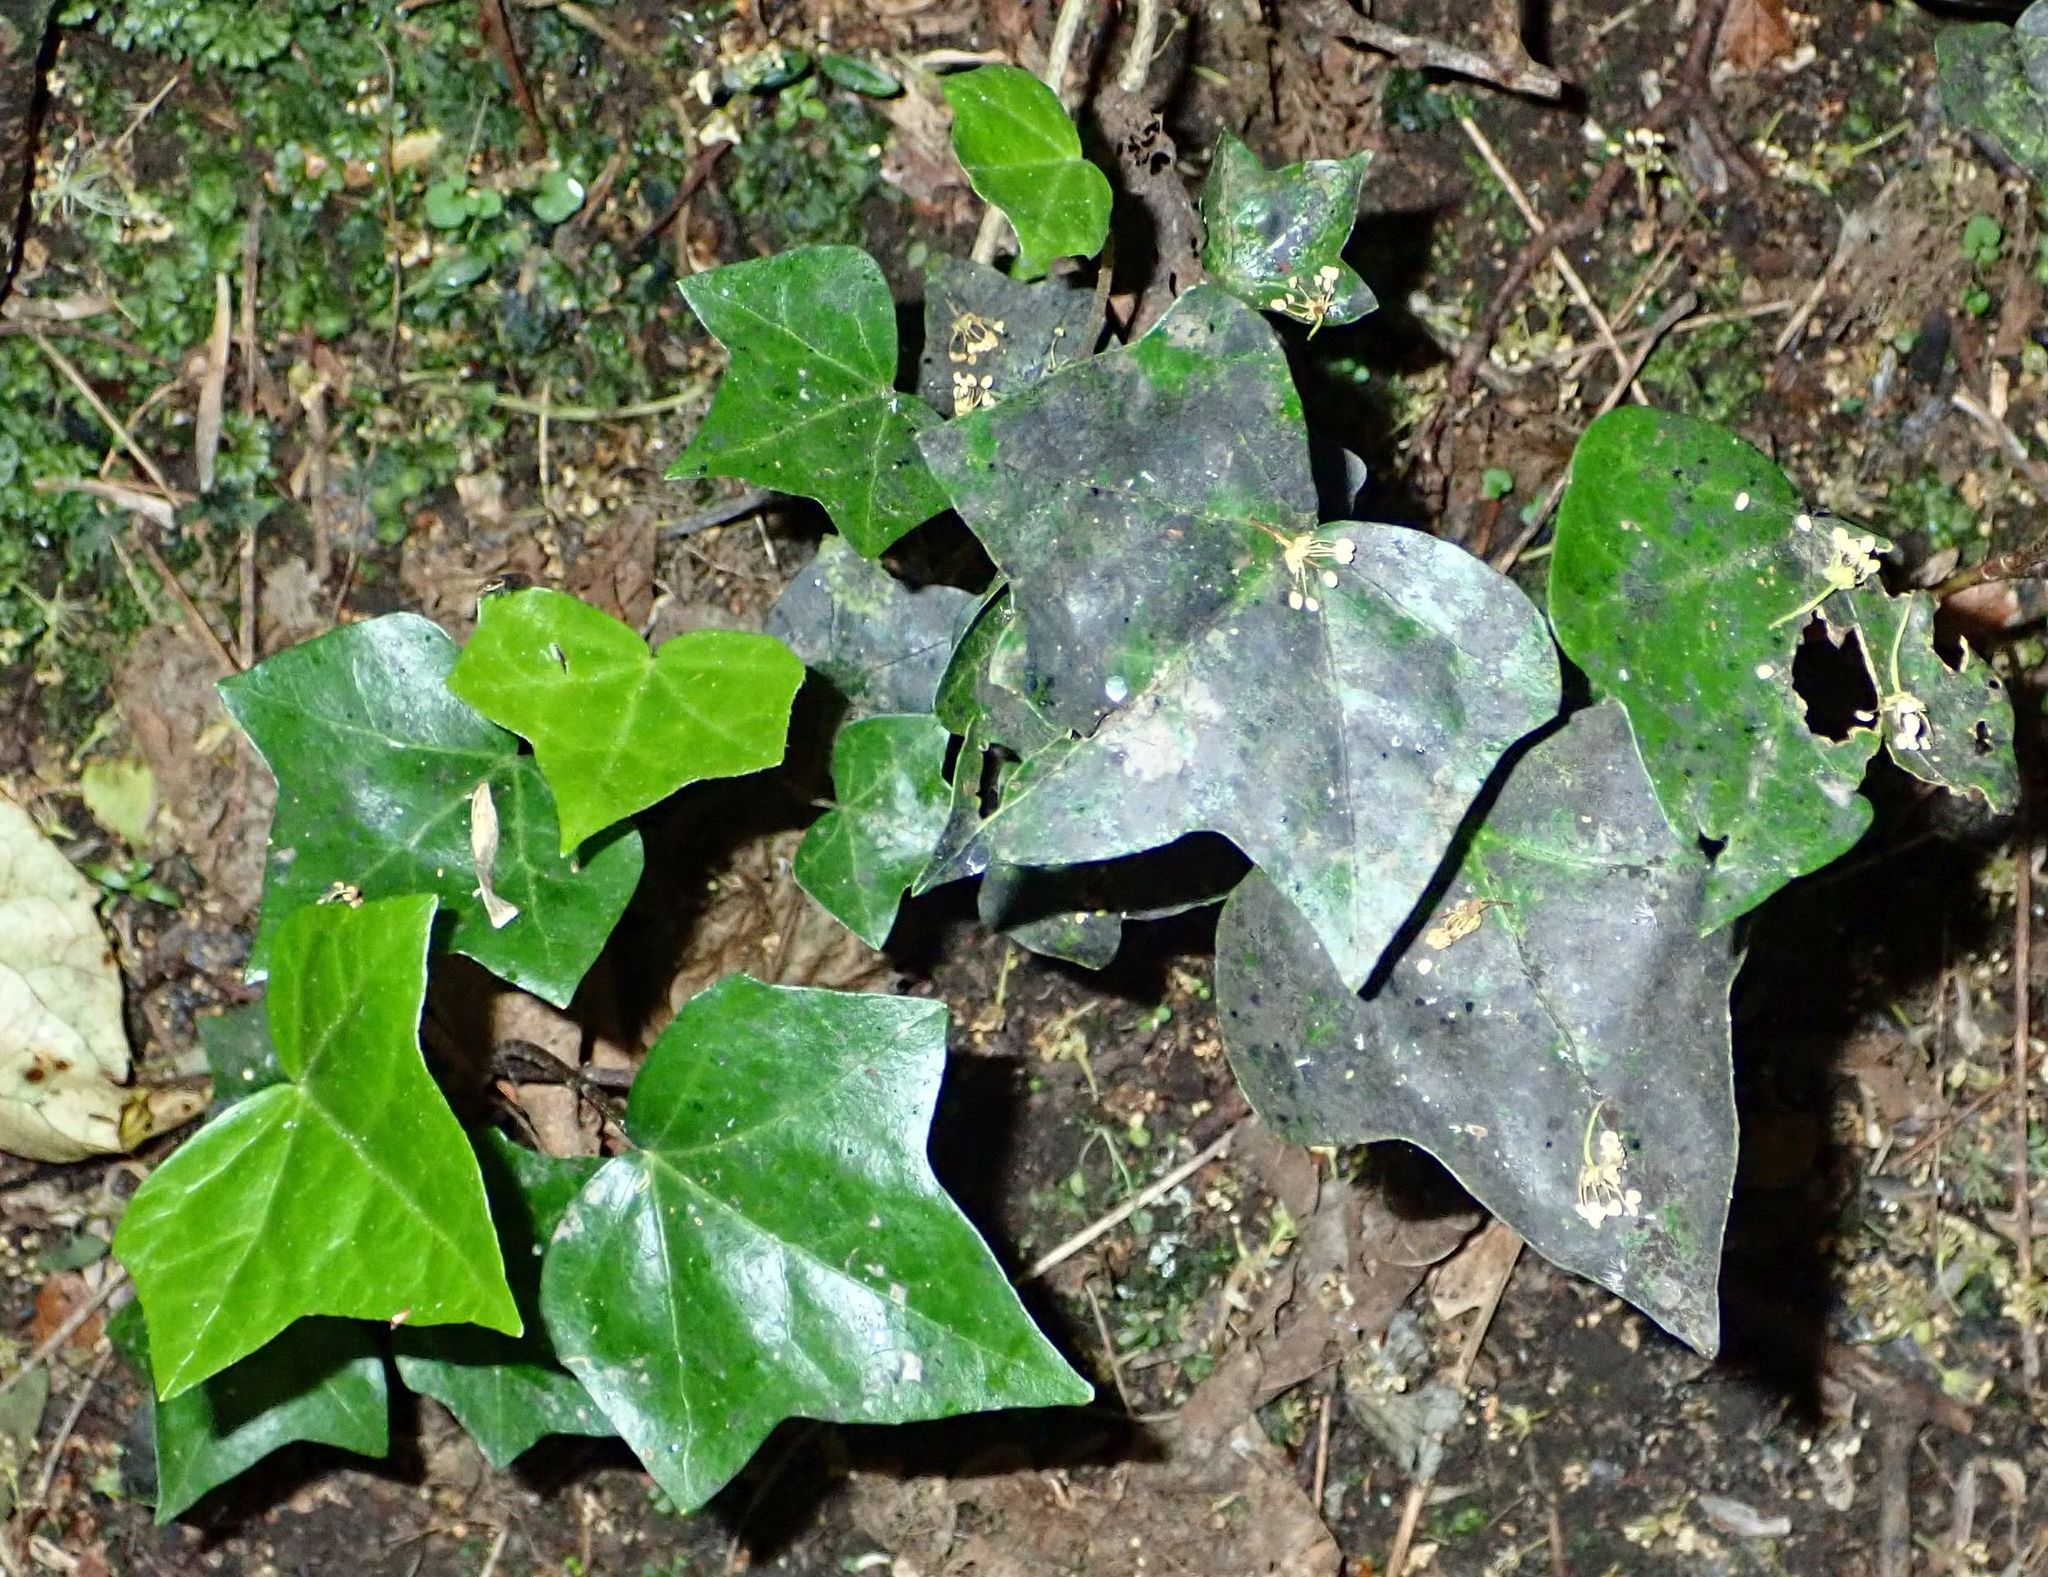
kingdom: Plantae
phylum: Tracheophyta
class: Magnoliopsida
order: Apiales
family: Araliaceae
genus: Hedera
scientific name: Hedera helix
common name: Ivy
